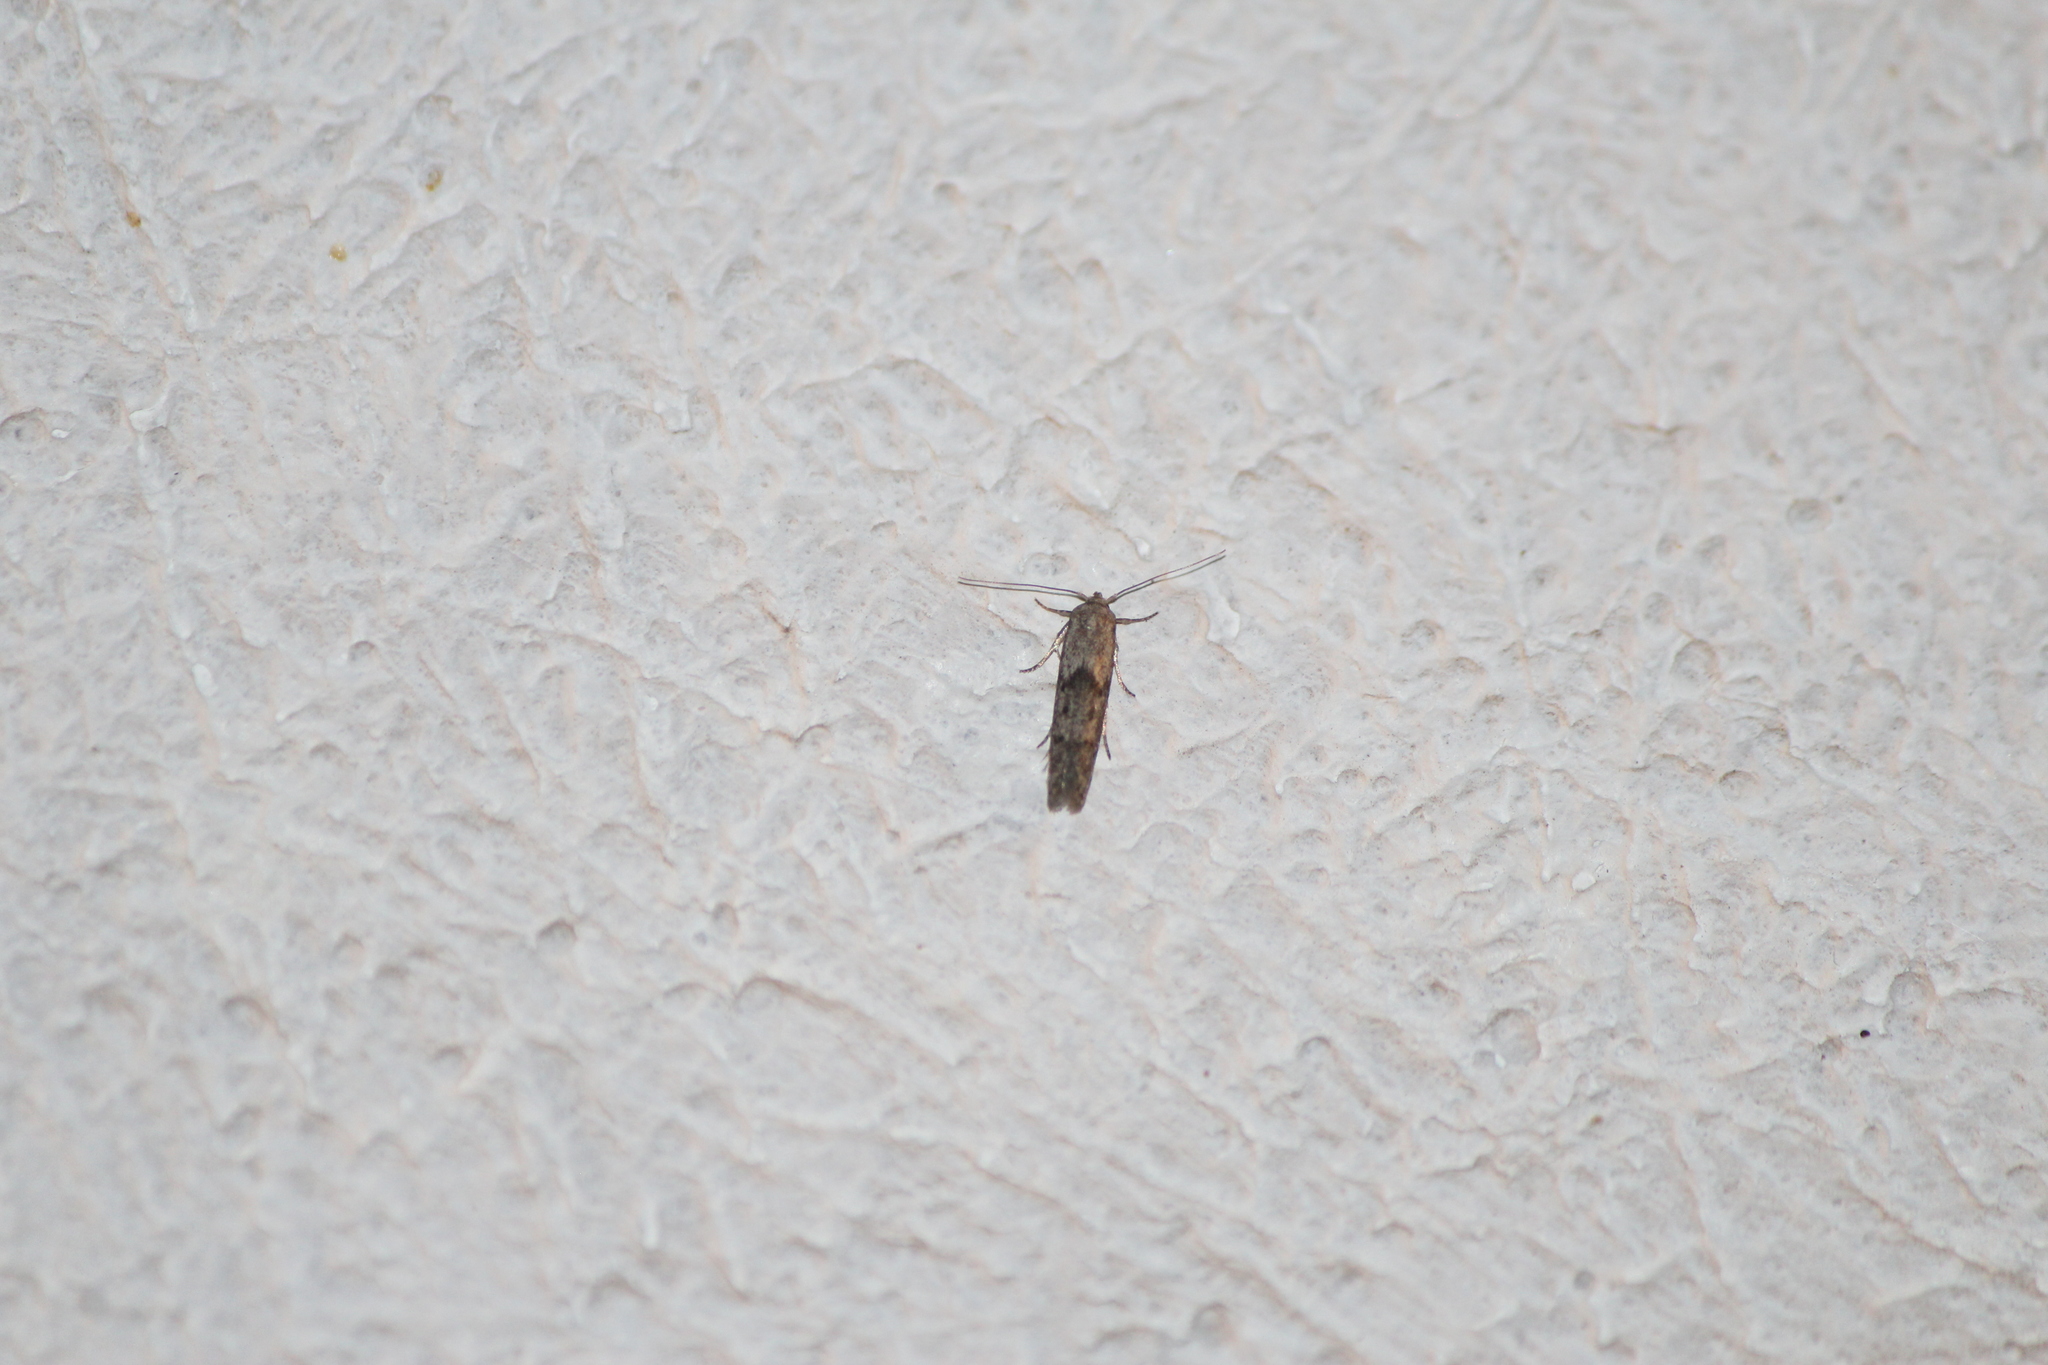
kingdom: Animalia
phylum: Arthropoda
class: Insecta
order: Lepidoptera
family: Pyralidae
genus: Ephestiodes
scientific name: Ephestiodes gilvescentella
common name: Moth
